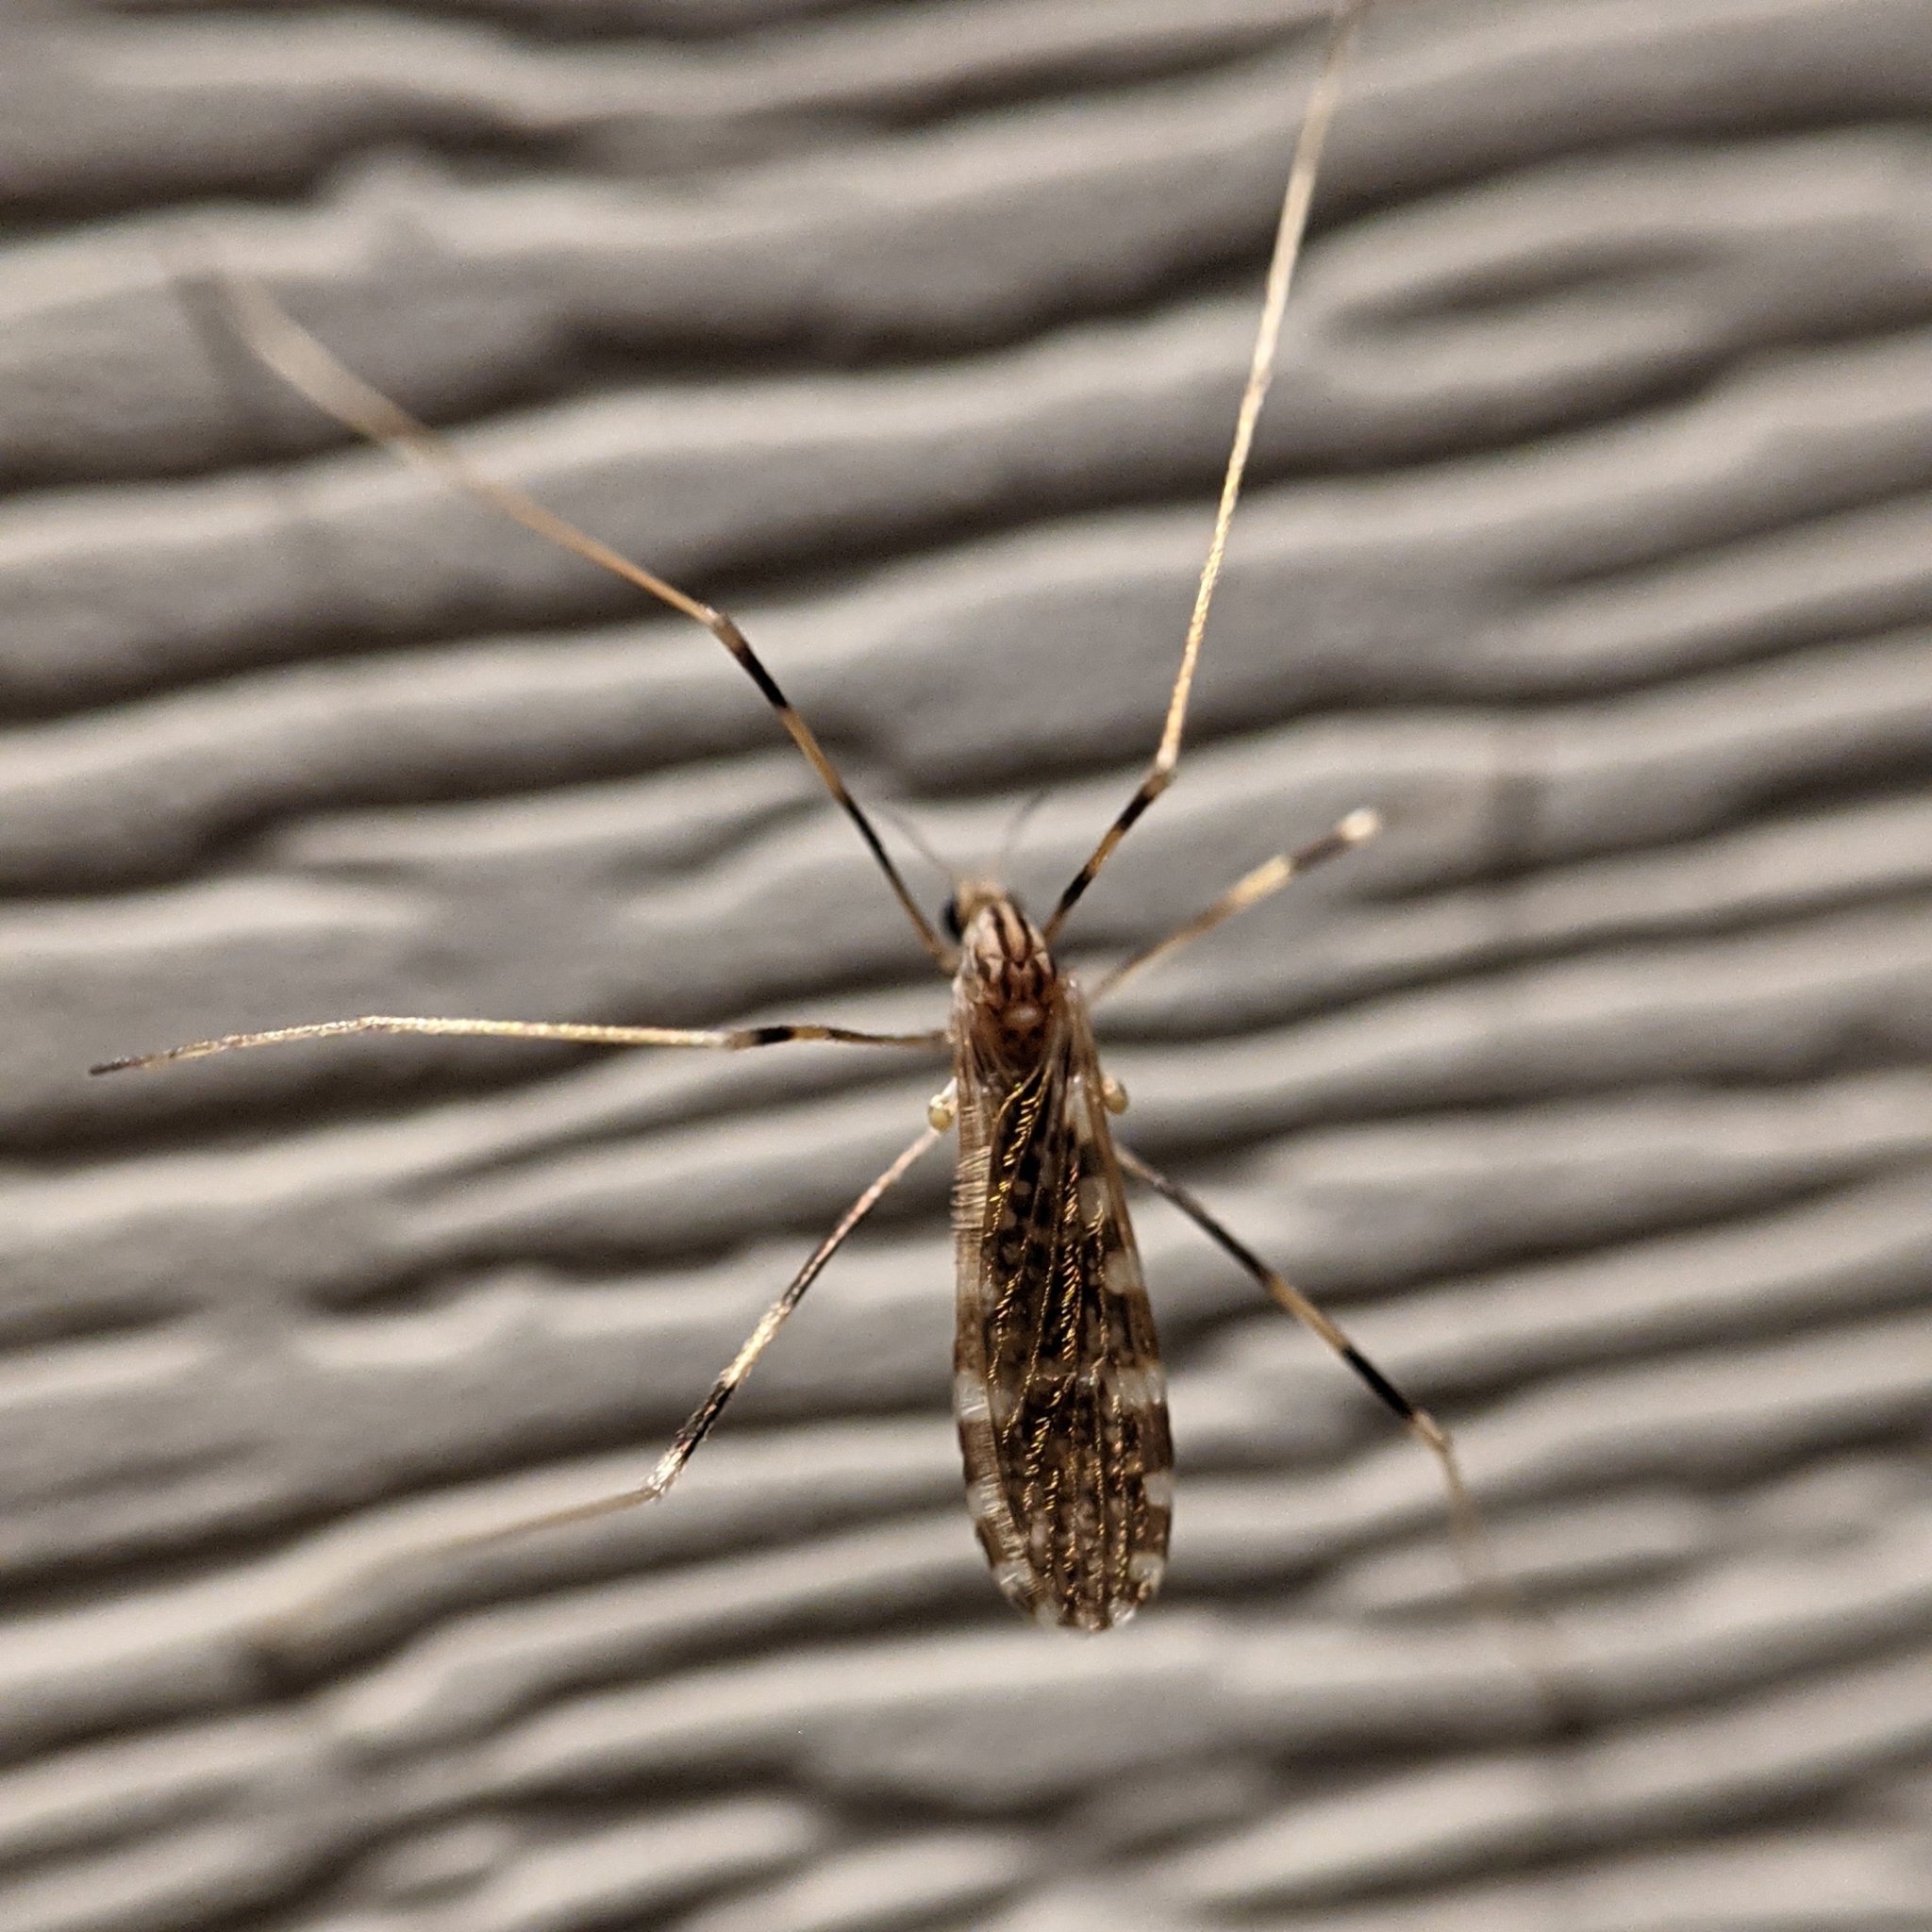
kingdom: Animalia
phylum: Arthropoda
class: Insecta
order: Diptera
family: Limoniidae
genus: Erioptera
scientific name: Erioptera caliptera
